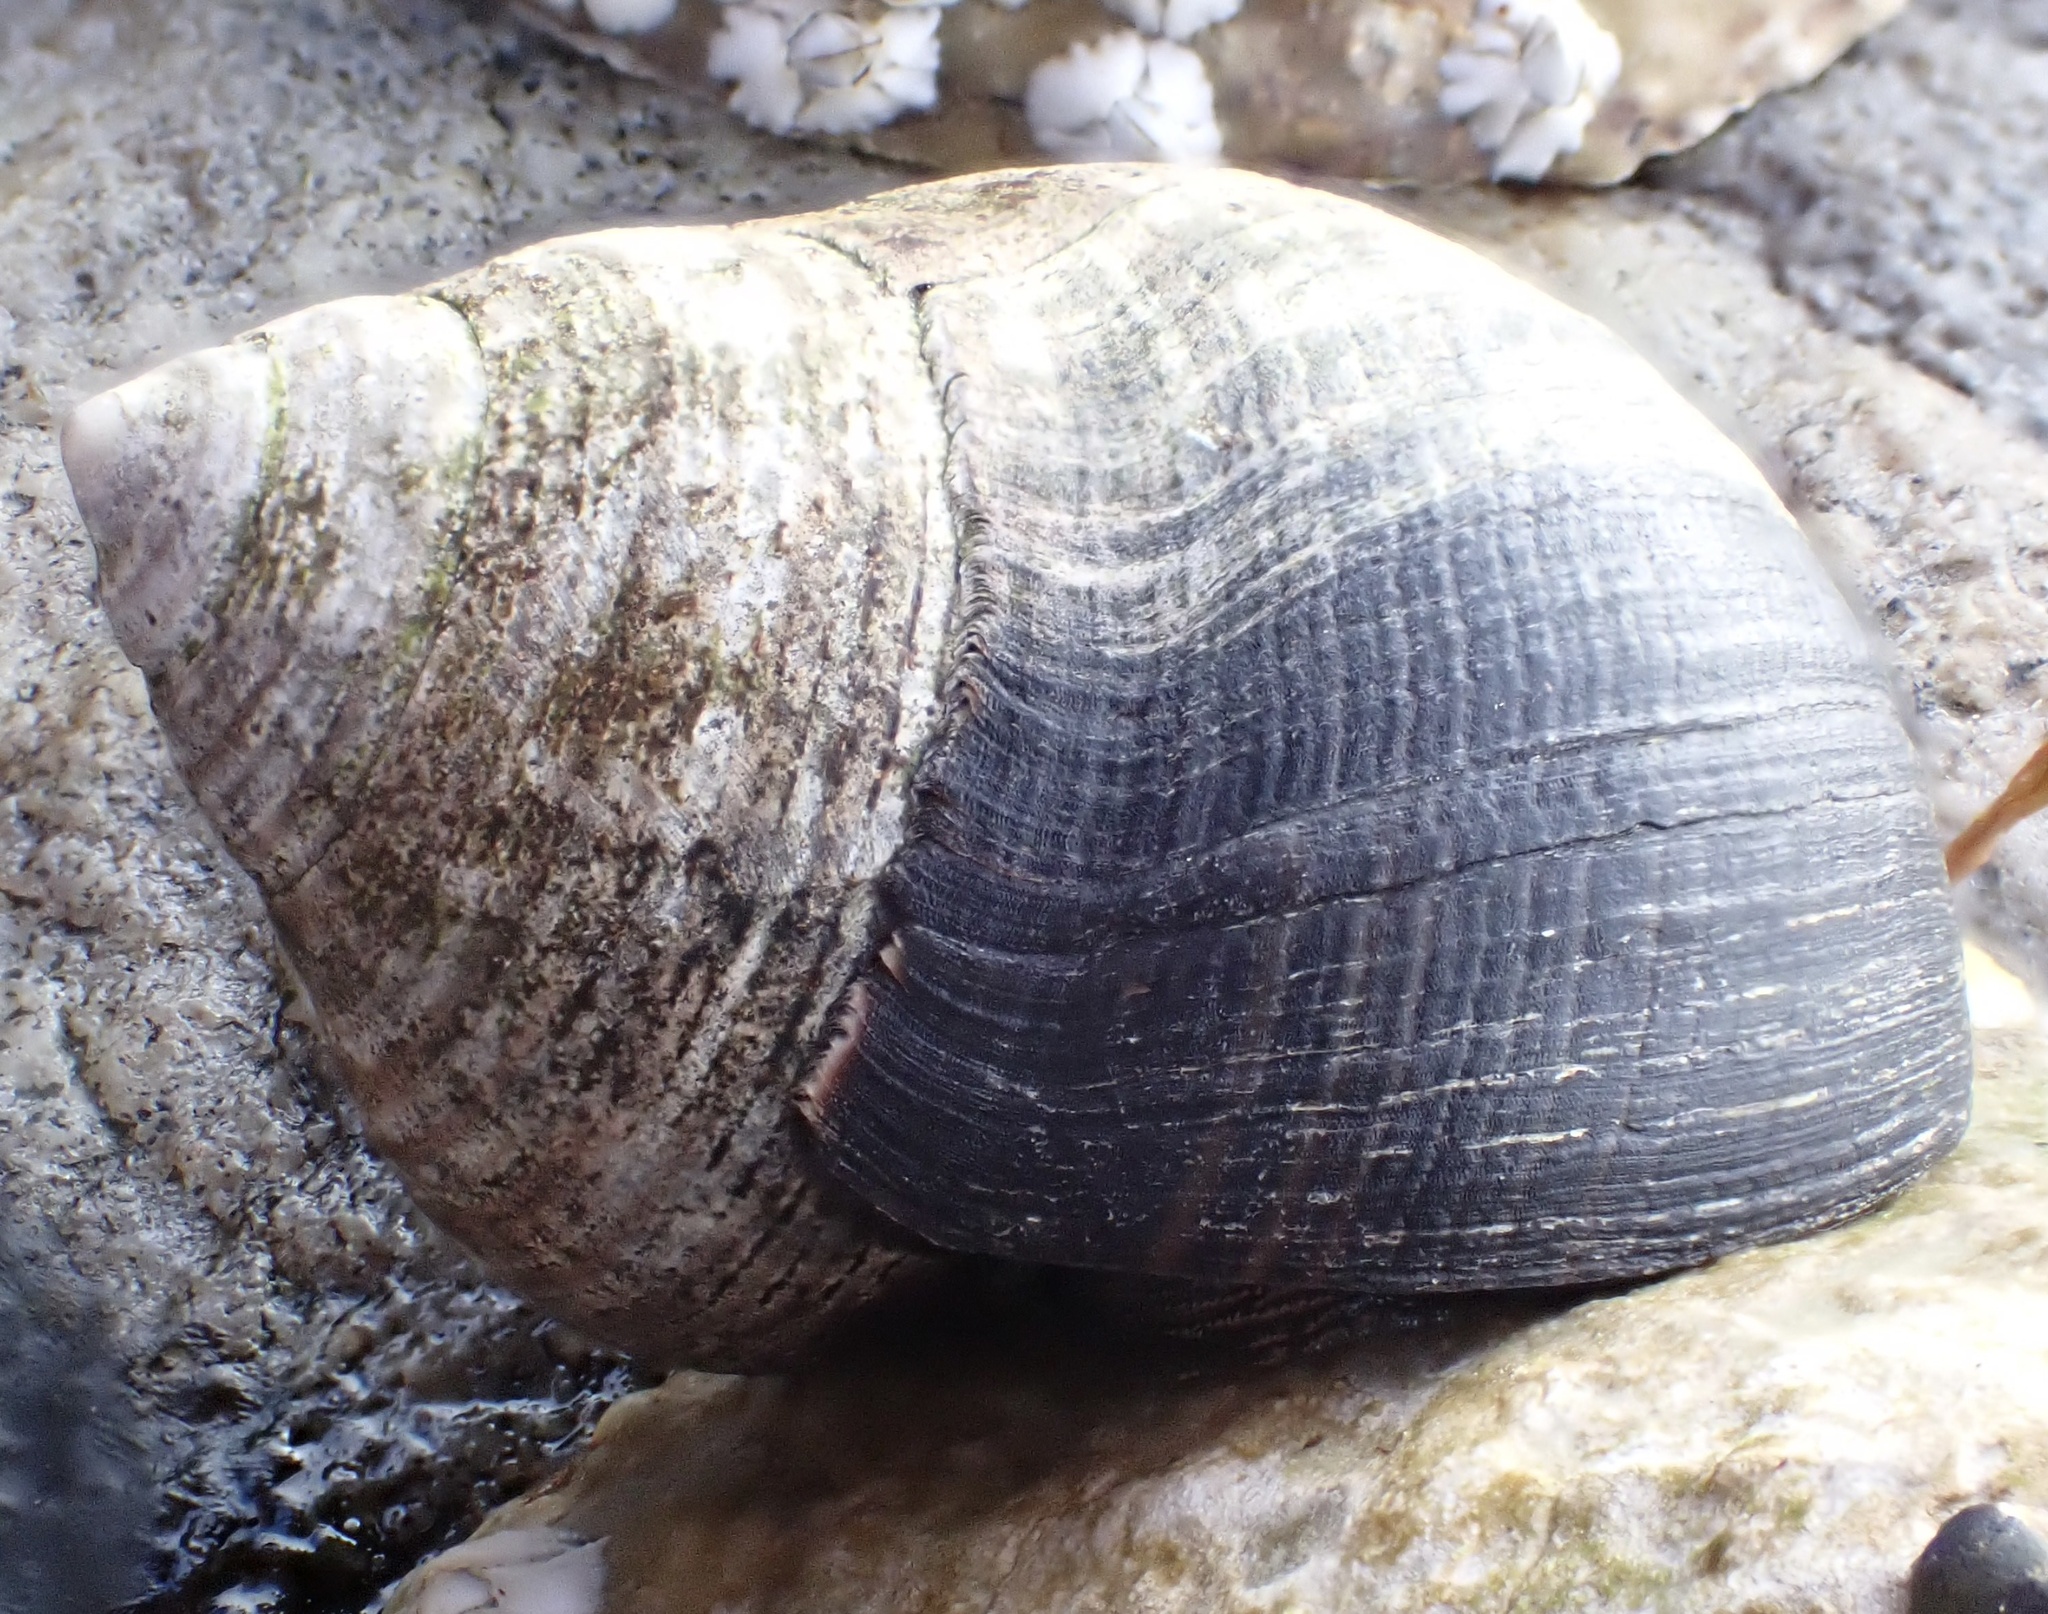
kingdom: Animalia
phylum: Mollusca
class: Gastropoda
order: Littorinimorpha
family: Littorinidae
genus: Littorina
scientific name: Littorina littorea
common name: Common periwinkle
